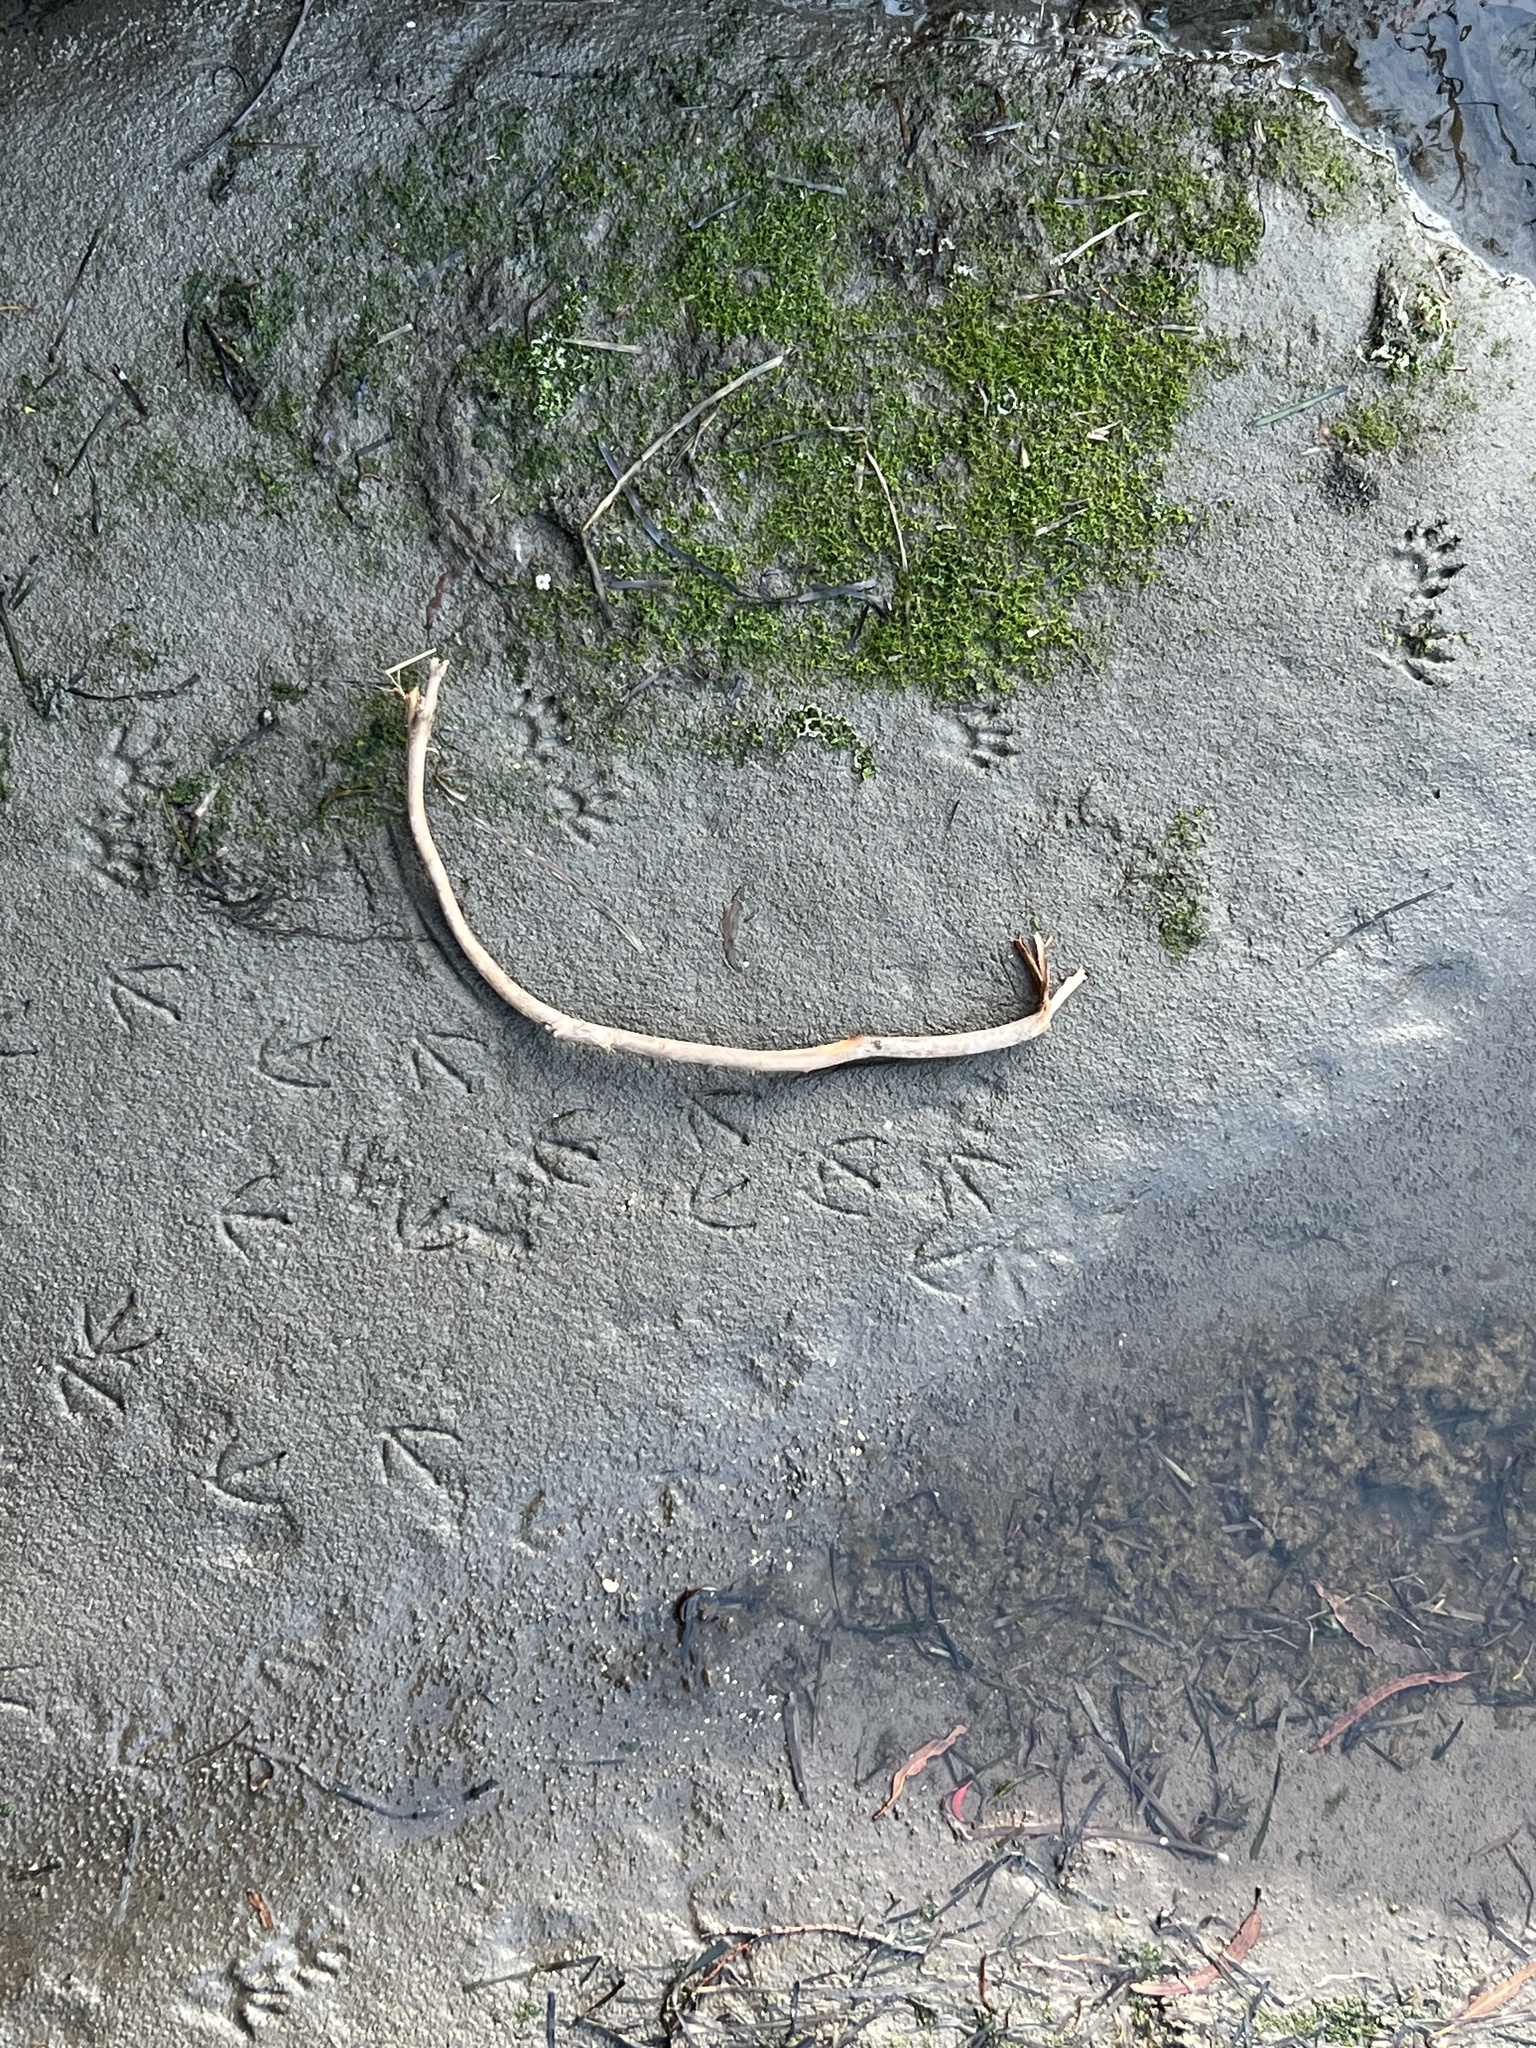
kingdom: Animalia
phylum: Chordata
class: Mammalia
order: Carnivora
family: Procyonidae
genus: Procyon
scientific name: Procyon lotor
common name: Raccoon
